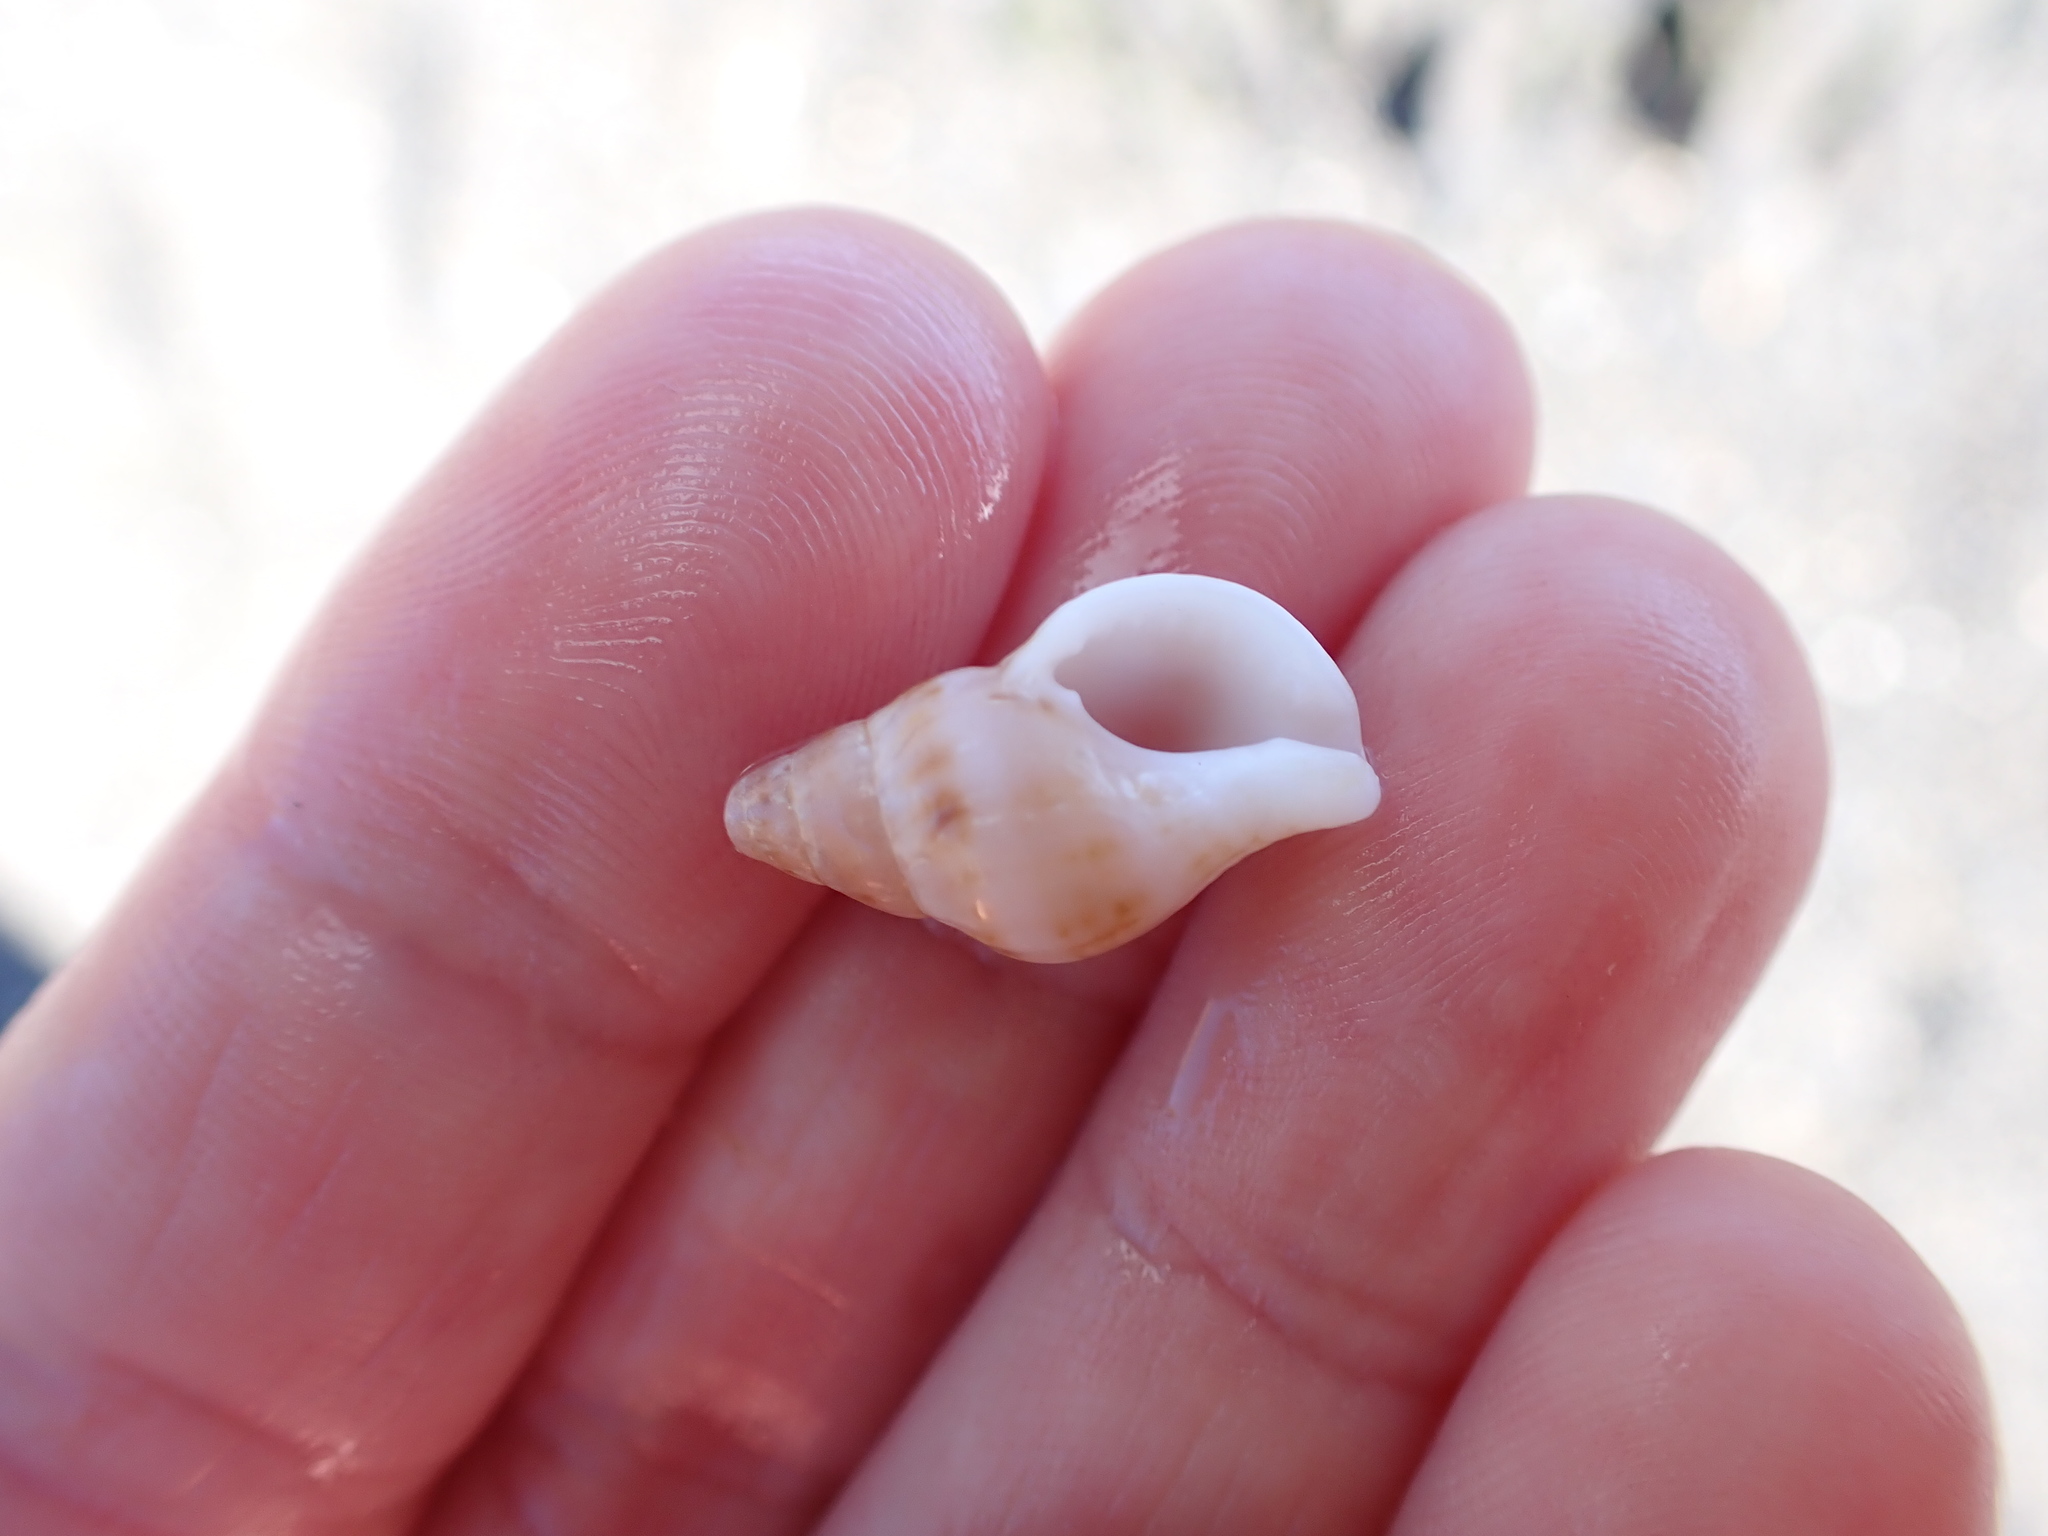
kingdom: Animalia
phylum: Mollusca
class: Gastropoda
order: Neogastropoda
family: Tudiclidae
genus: Buccinulum
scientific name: Buccinulum littorinoides
